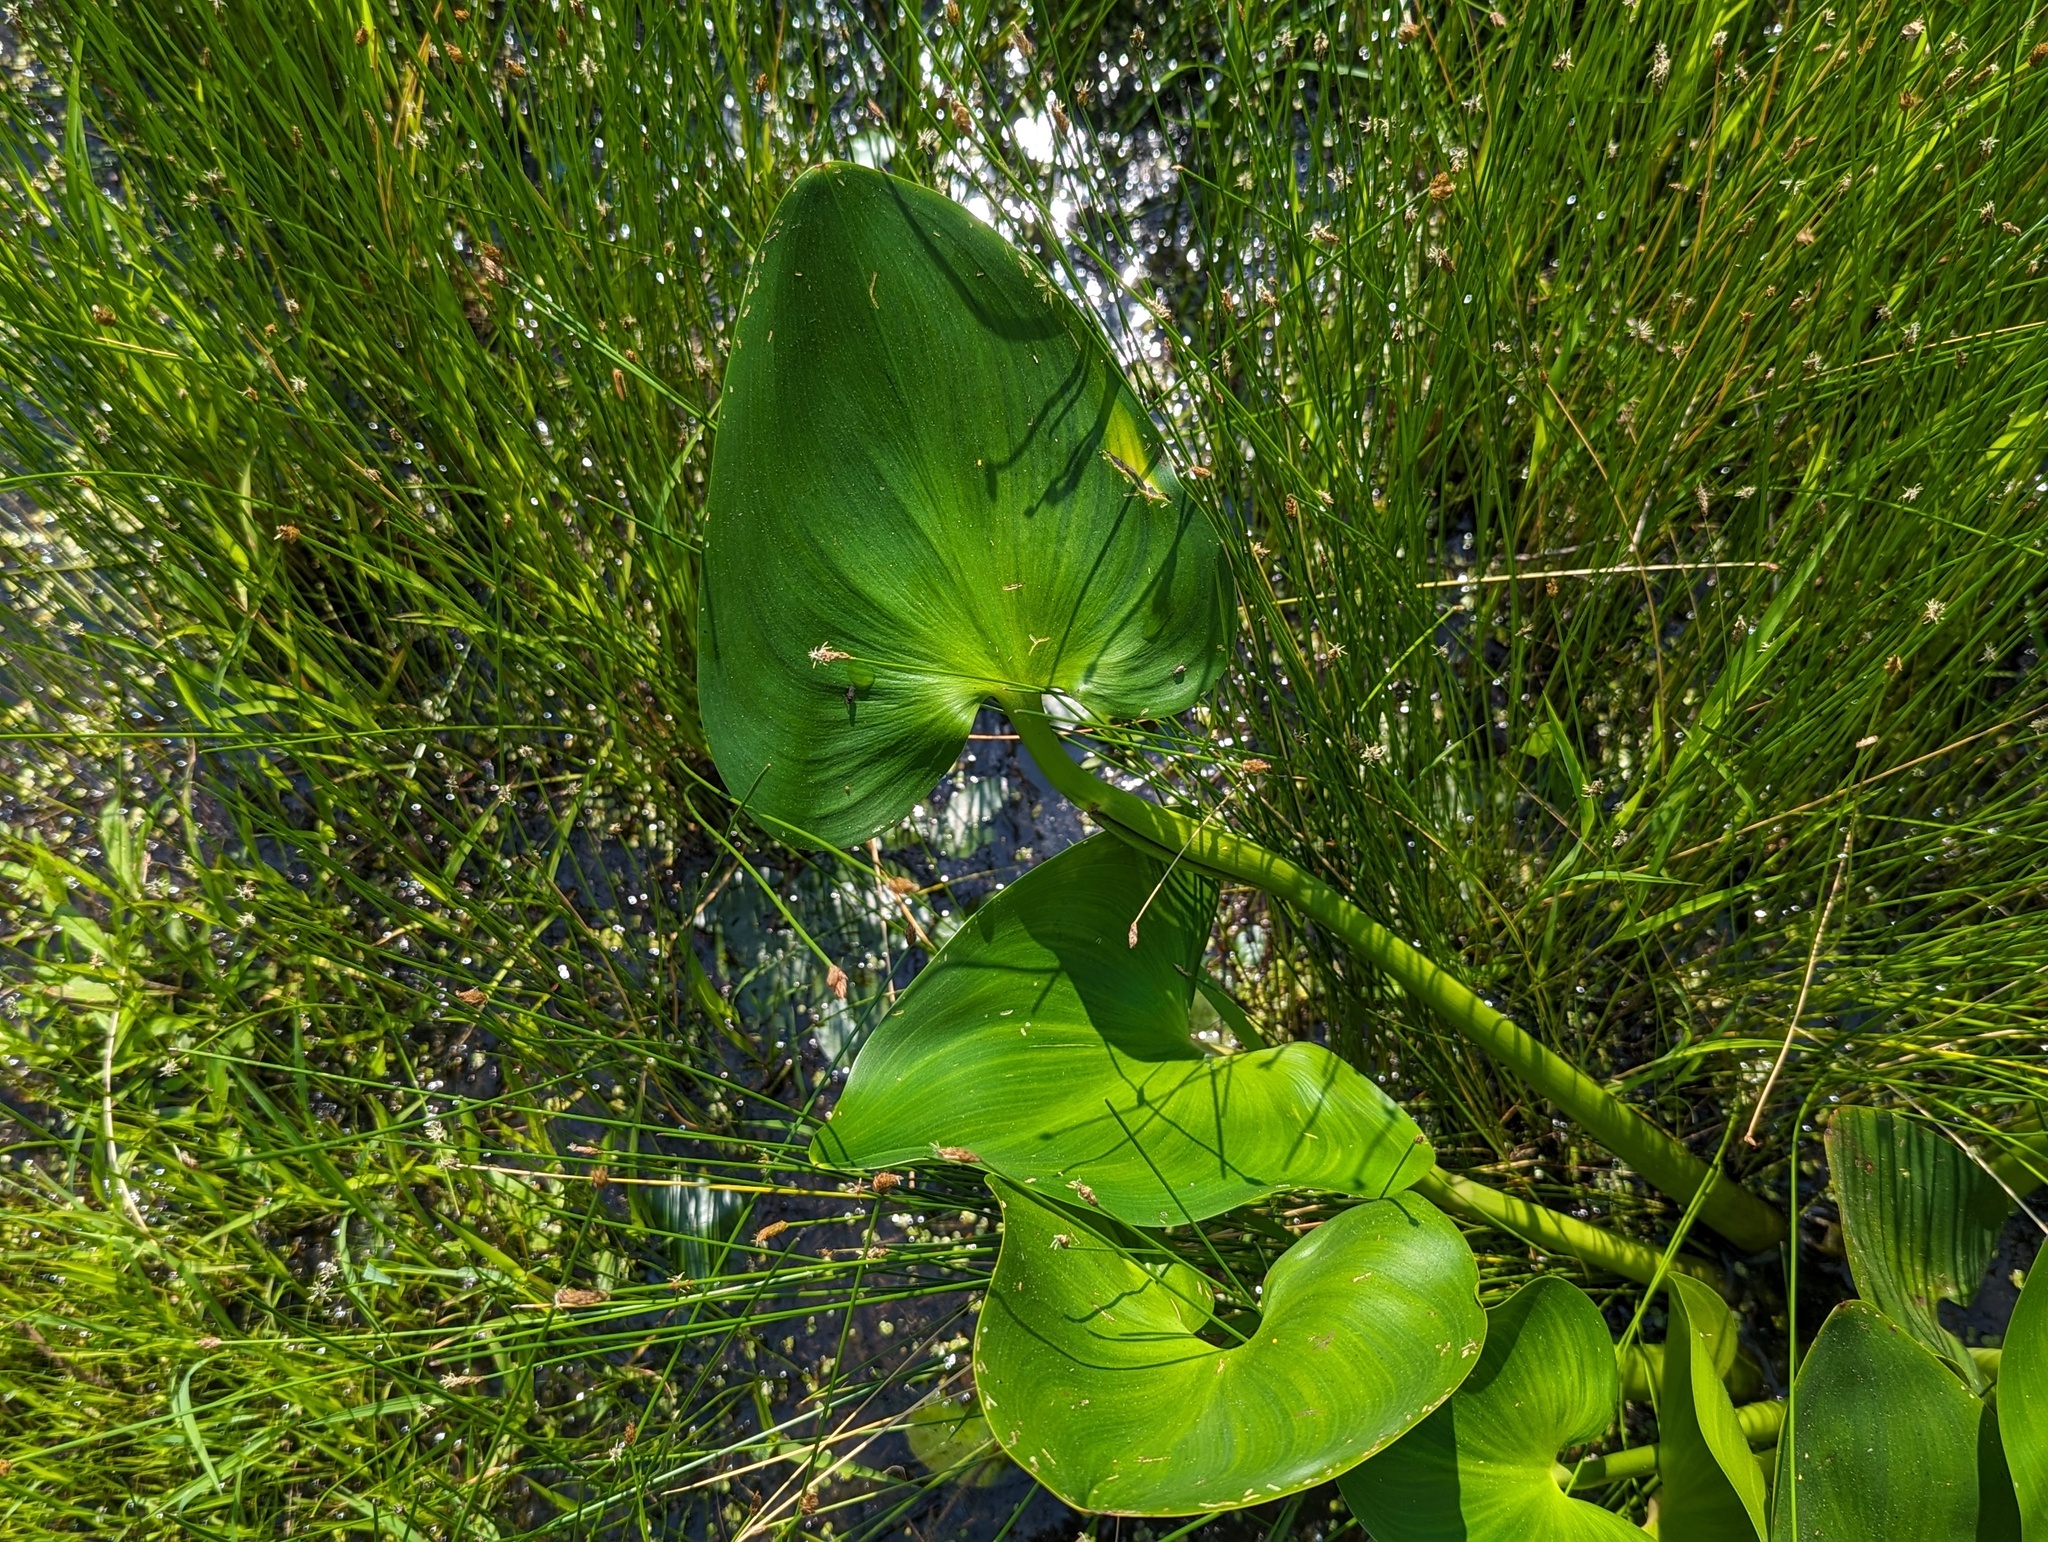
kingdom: Plantae
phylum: Tracheophyta
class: Liliopsida
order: Commelinales
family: Pontederiaceae
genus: Pontederia
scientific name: Pontederia cordata
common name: Pickerelweed
